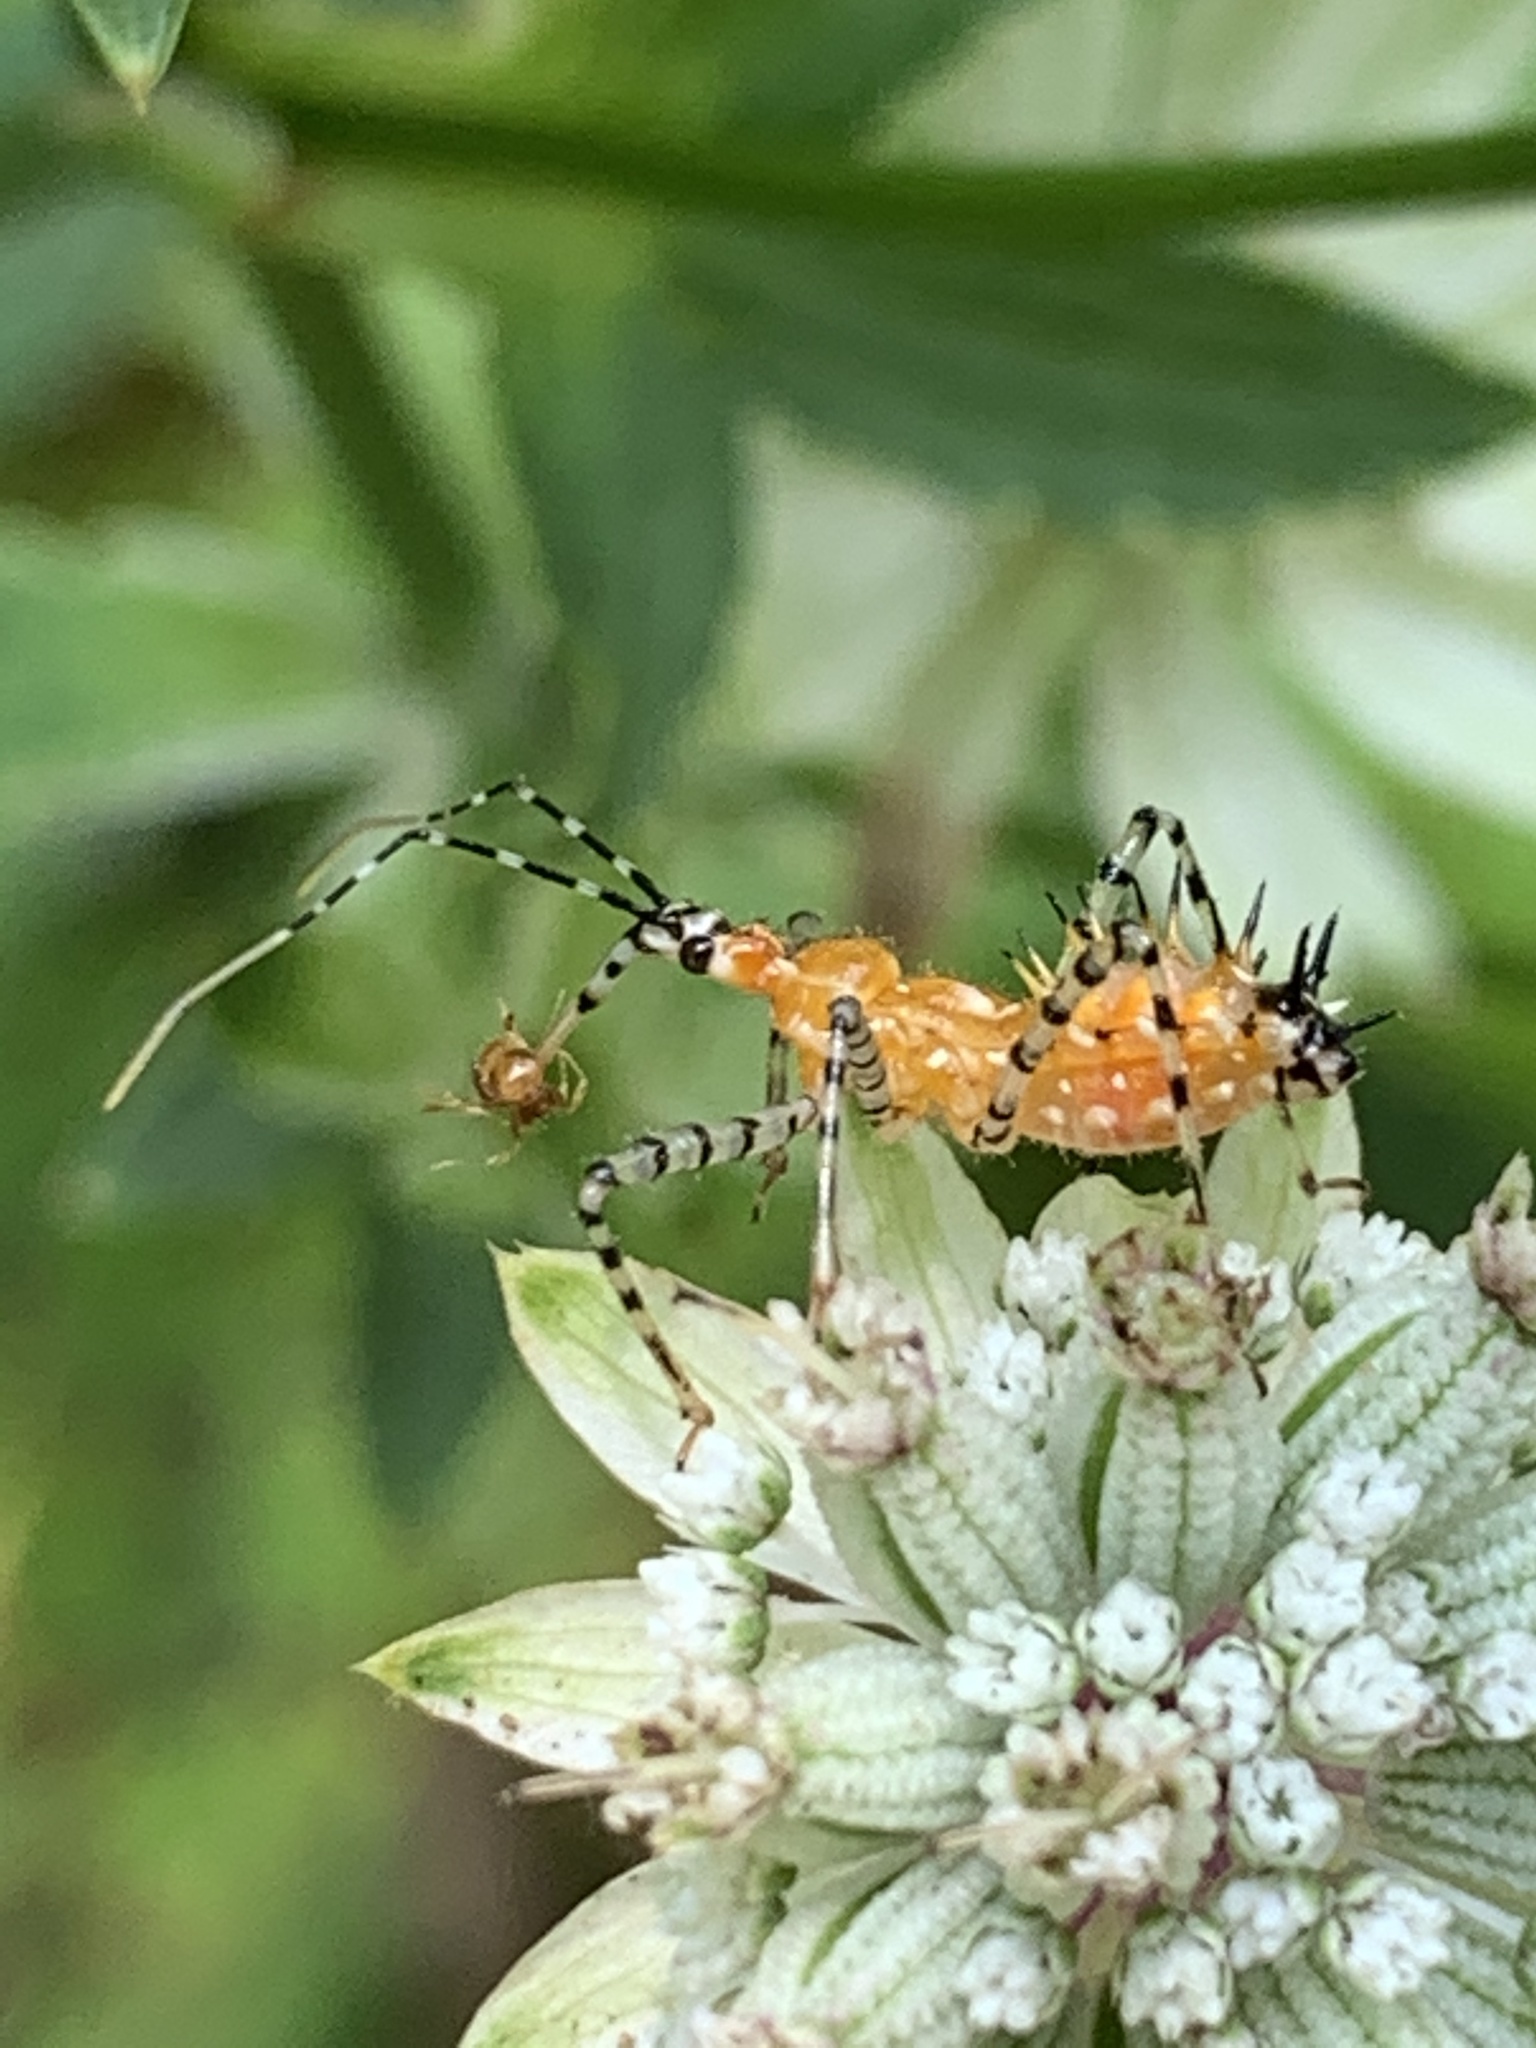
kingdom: Animalia
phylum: Arthropoda
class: Insecta
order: Hemiptera
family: Reduviidae
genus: Pselliopus
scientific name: Pselliopus cinctus
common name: Ringed assassin bug
